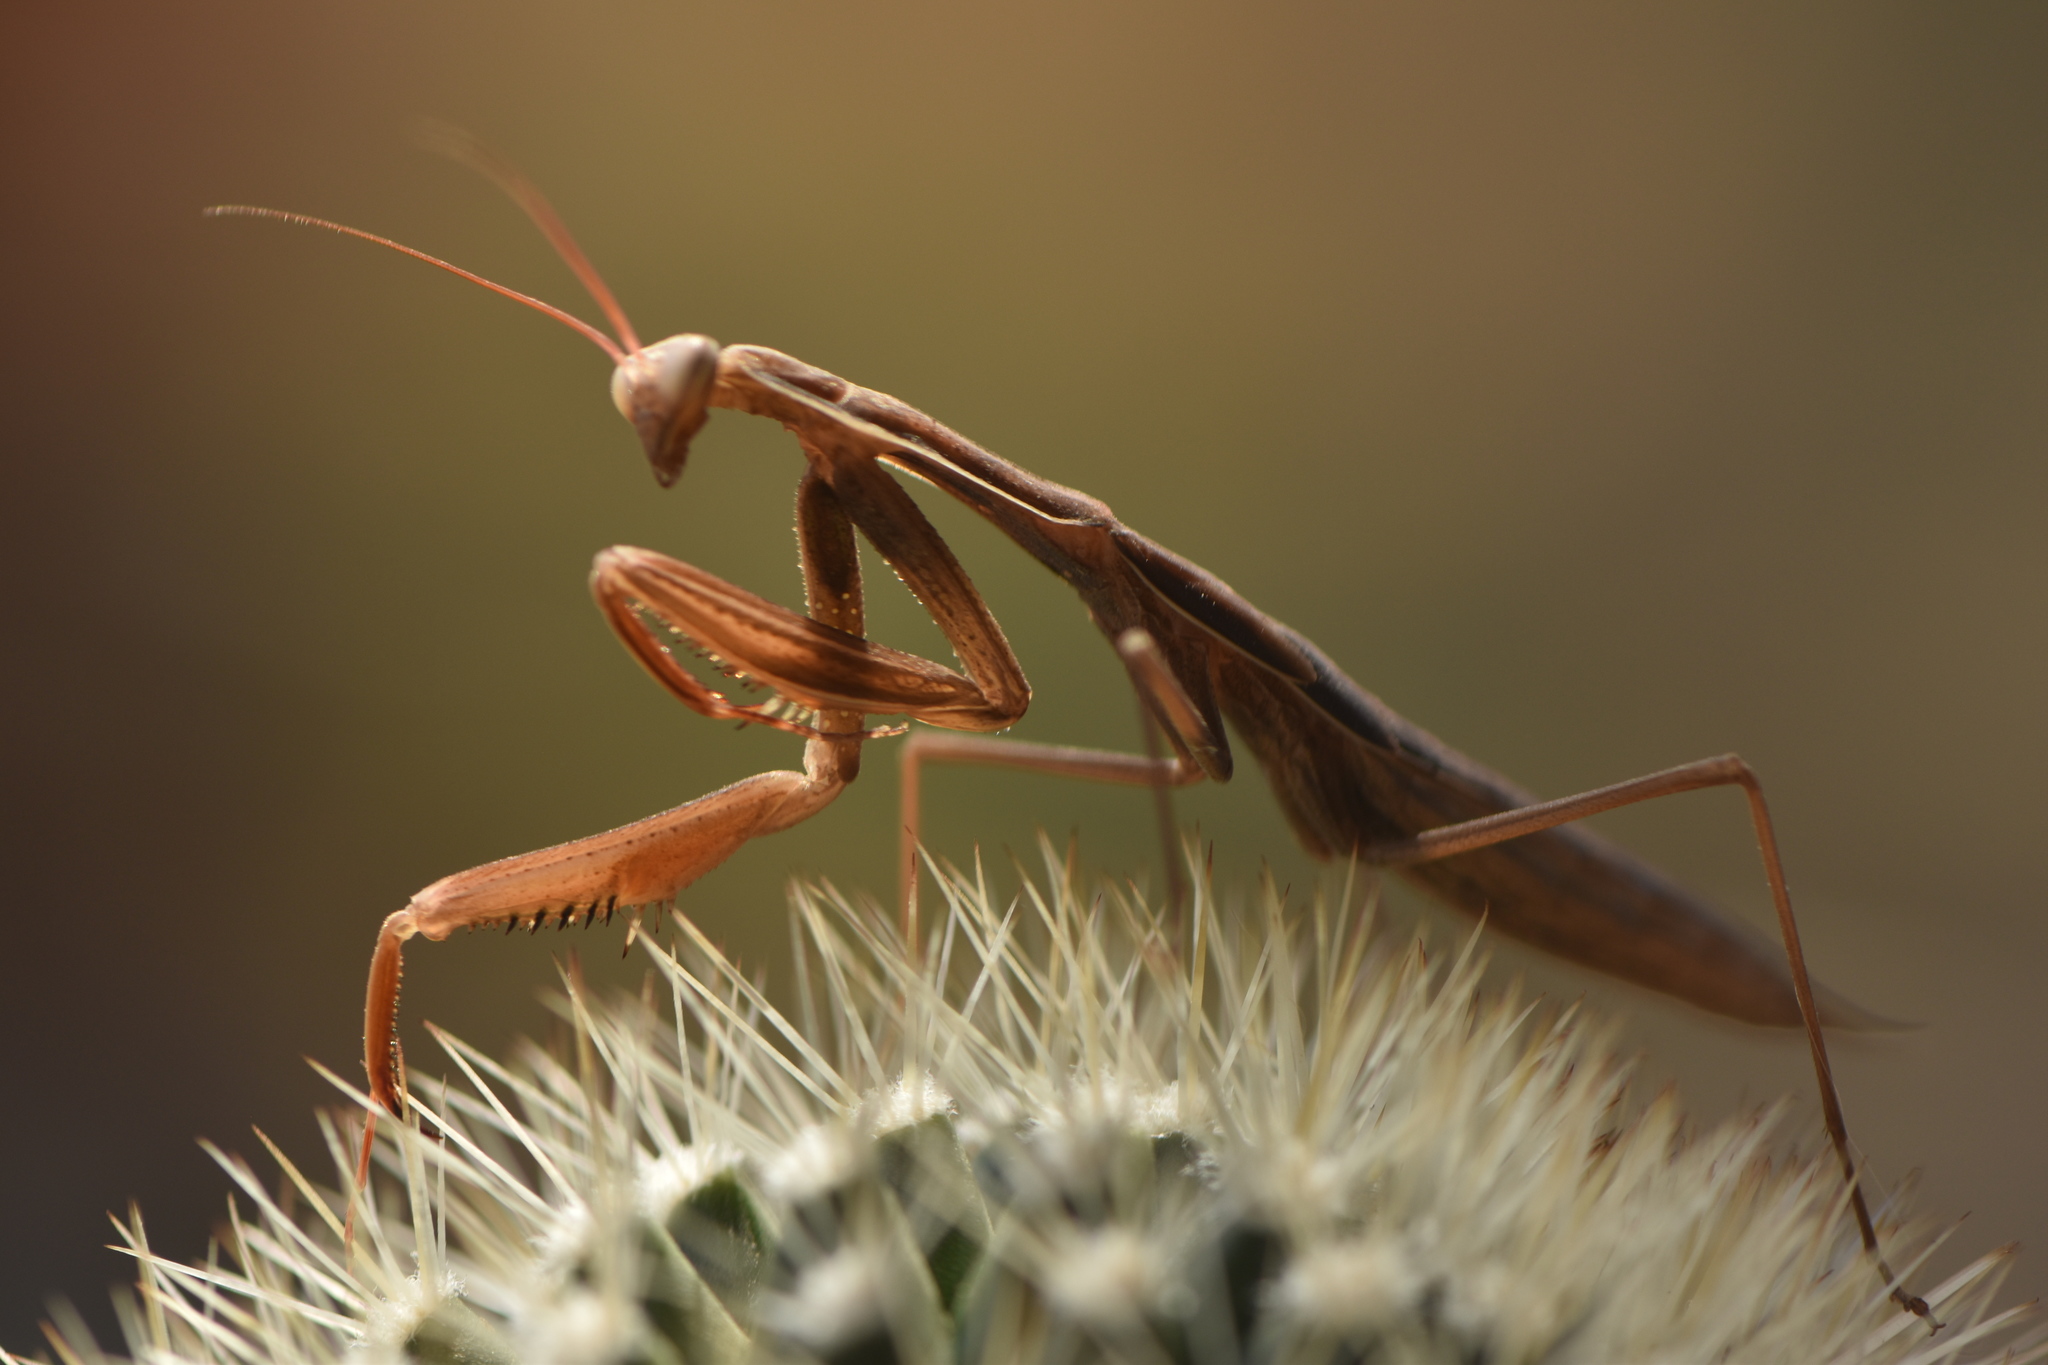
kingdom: Animalia
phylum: Arthropoda
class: Insecta
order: Mantodea
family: Mantidae
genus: Mantis
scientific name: Mantis religiosa
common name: Praying mantis
